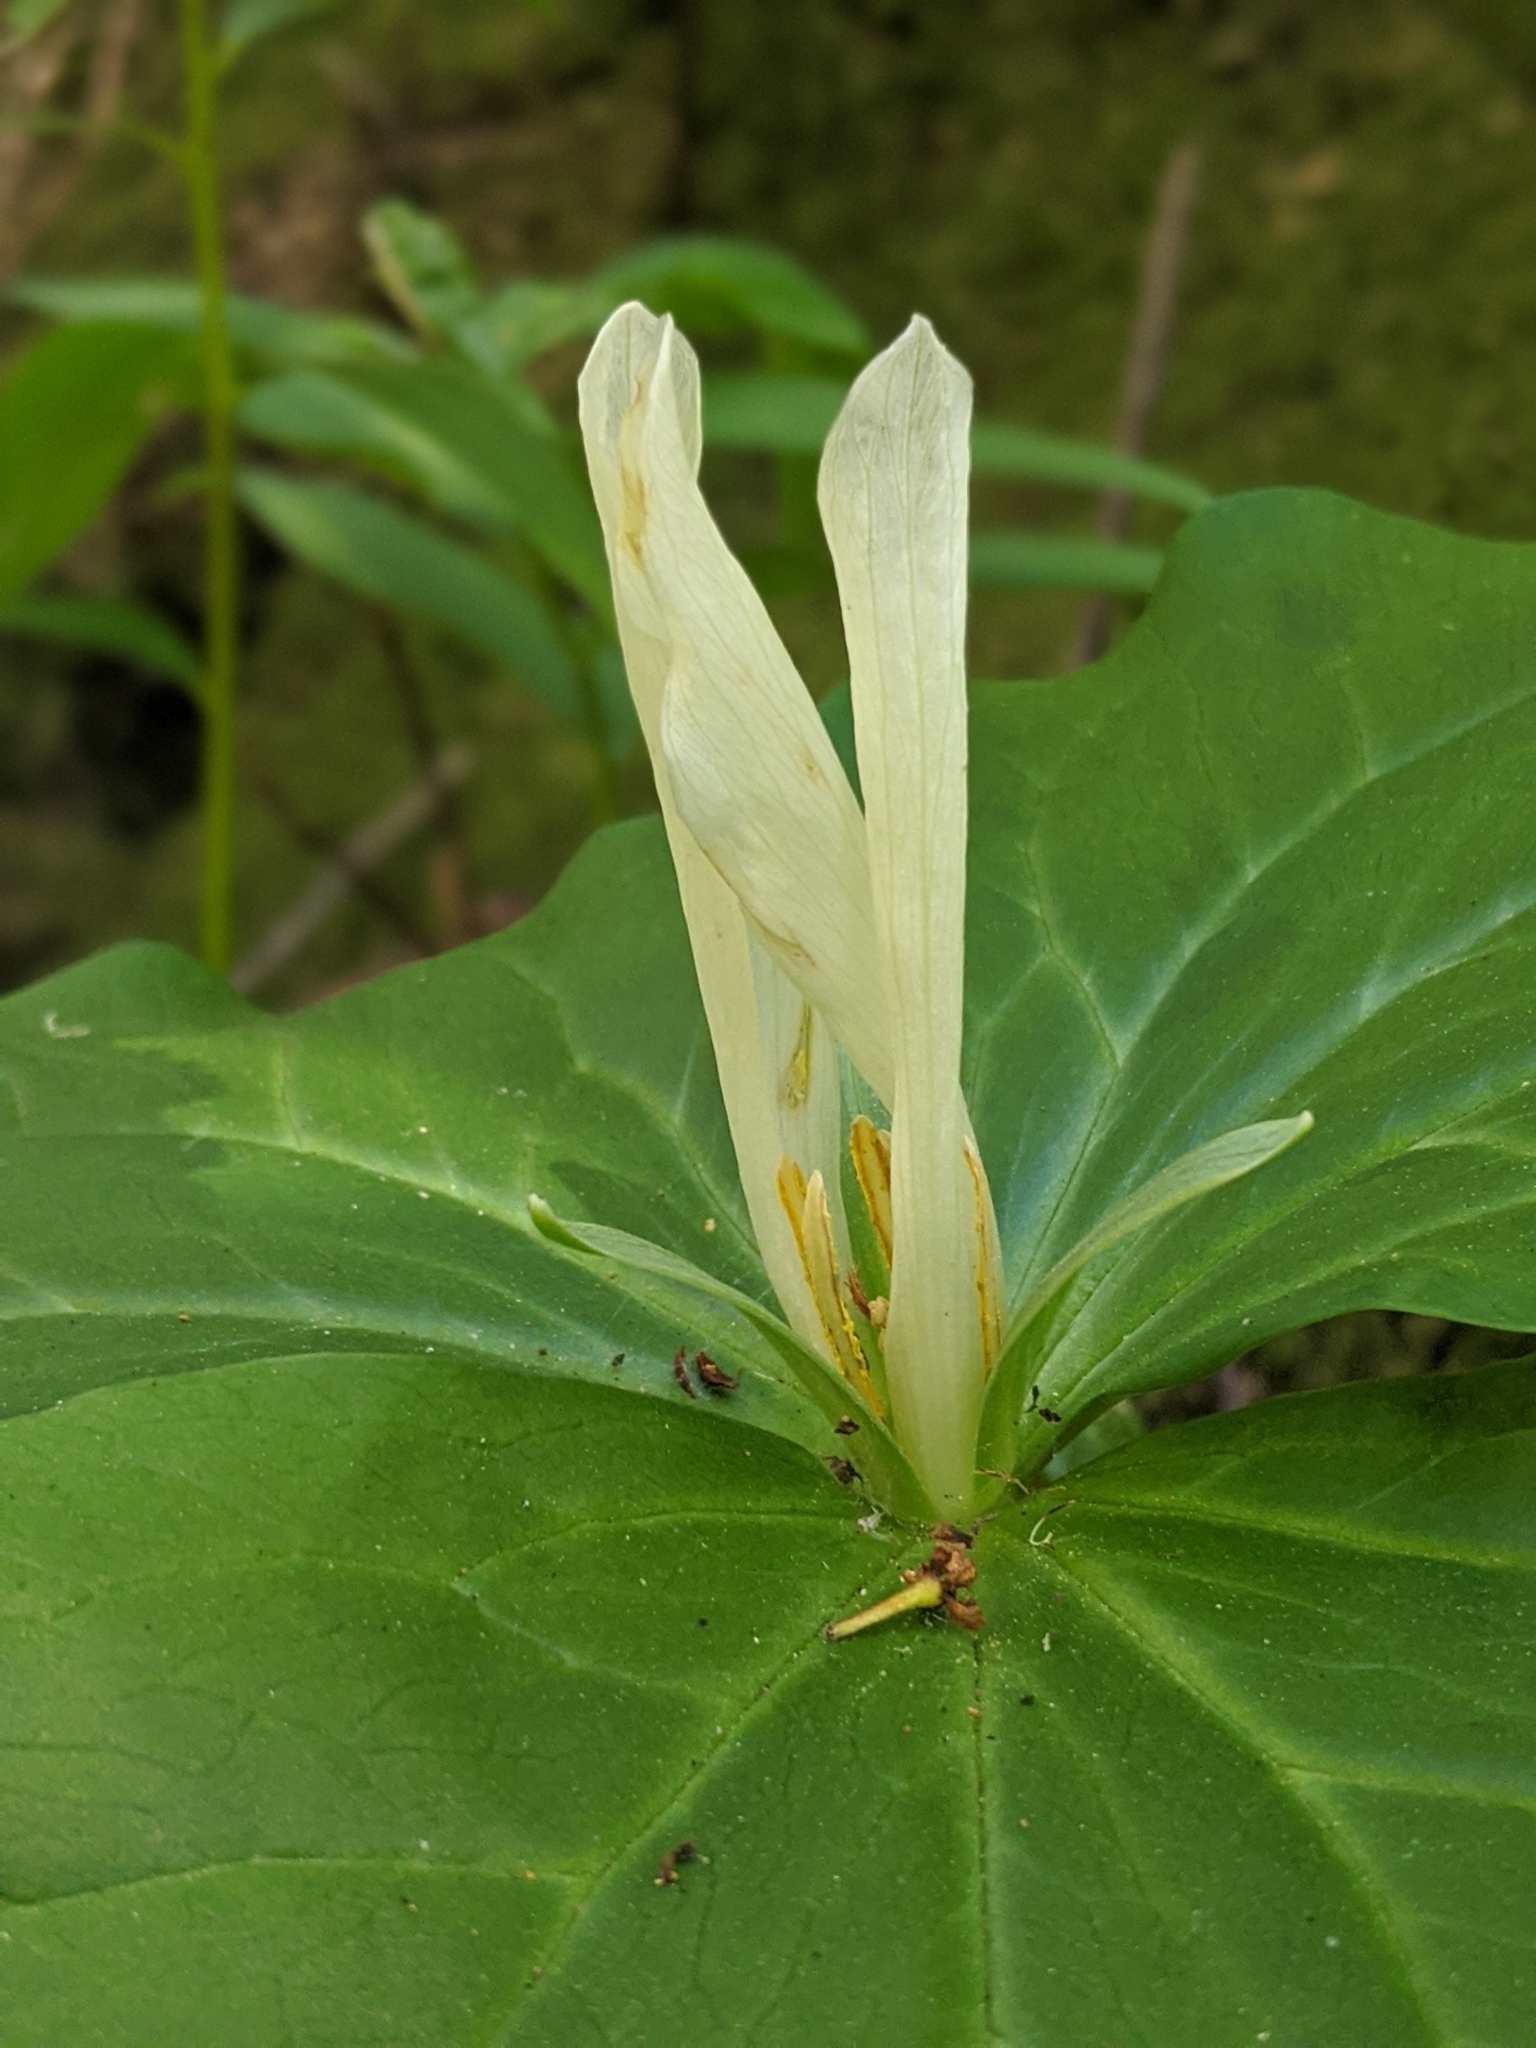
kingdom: Plantae
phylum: Tracheophyta
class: Liliopsida
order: Liliales
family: Melanthiaceae
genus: Trillium
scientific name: Trillium albidum
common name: Freeman's trillium
